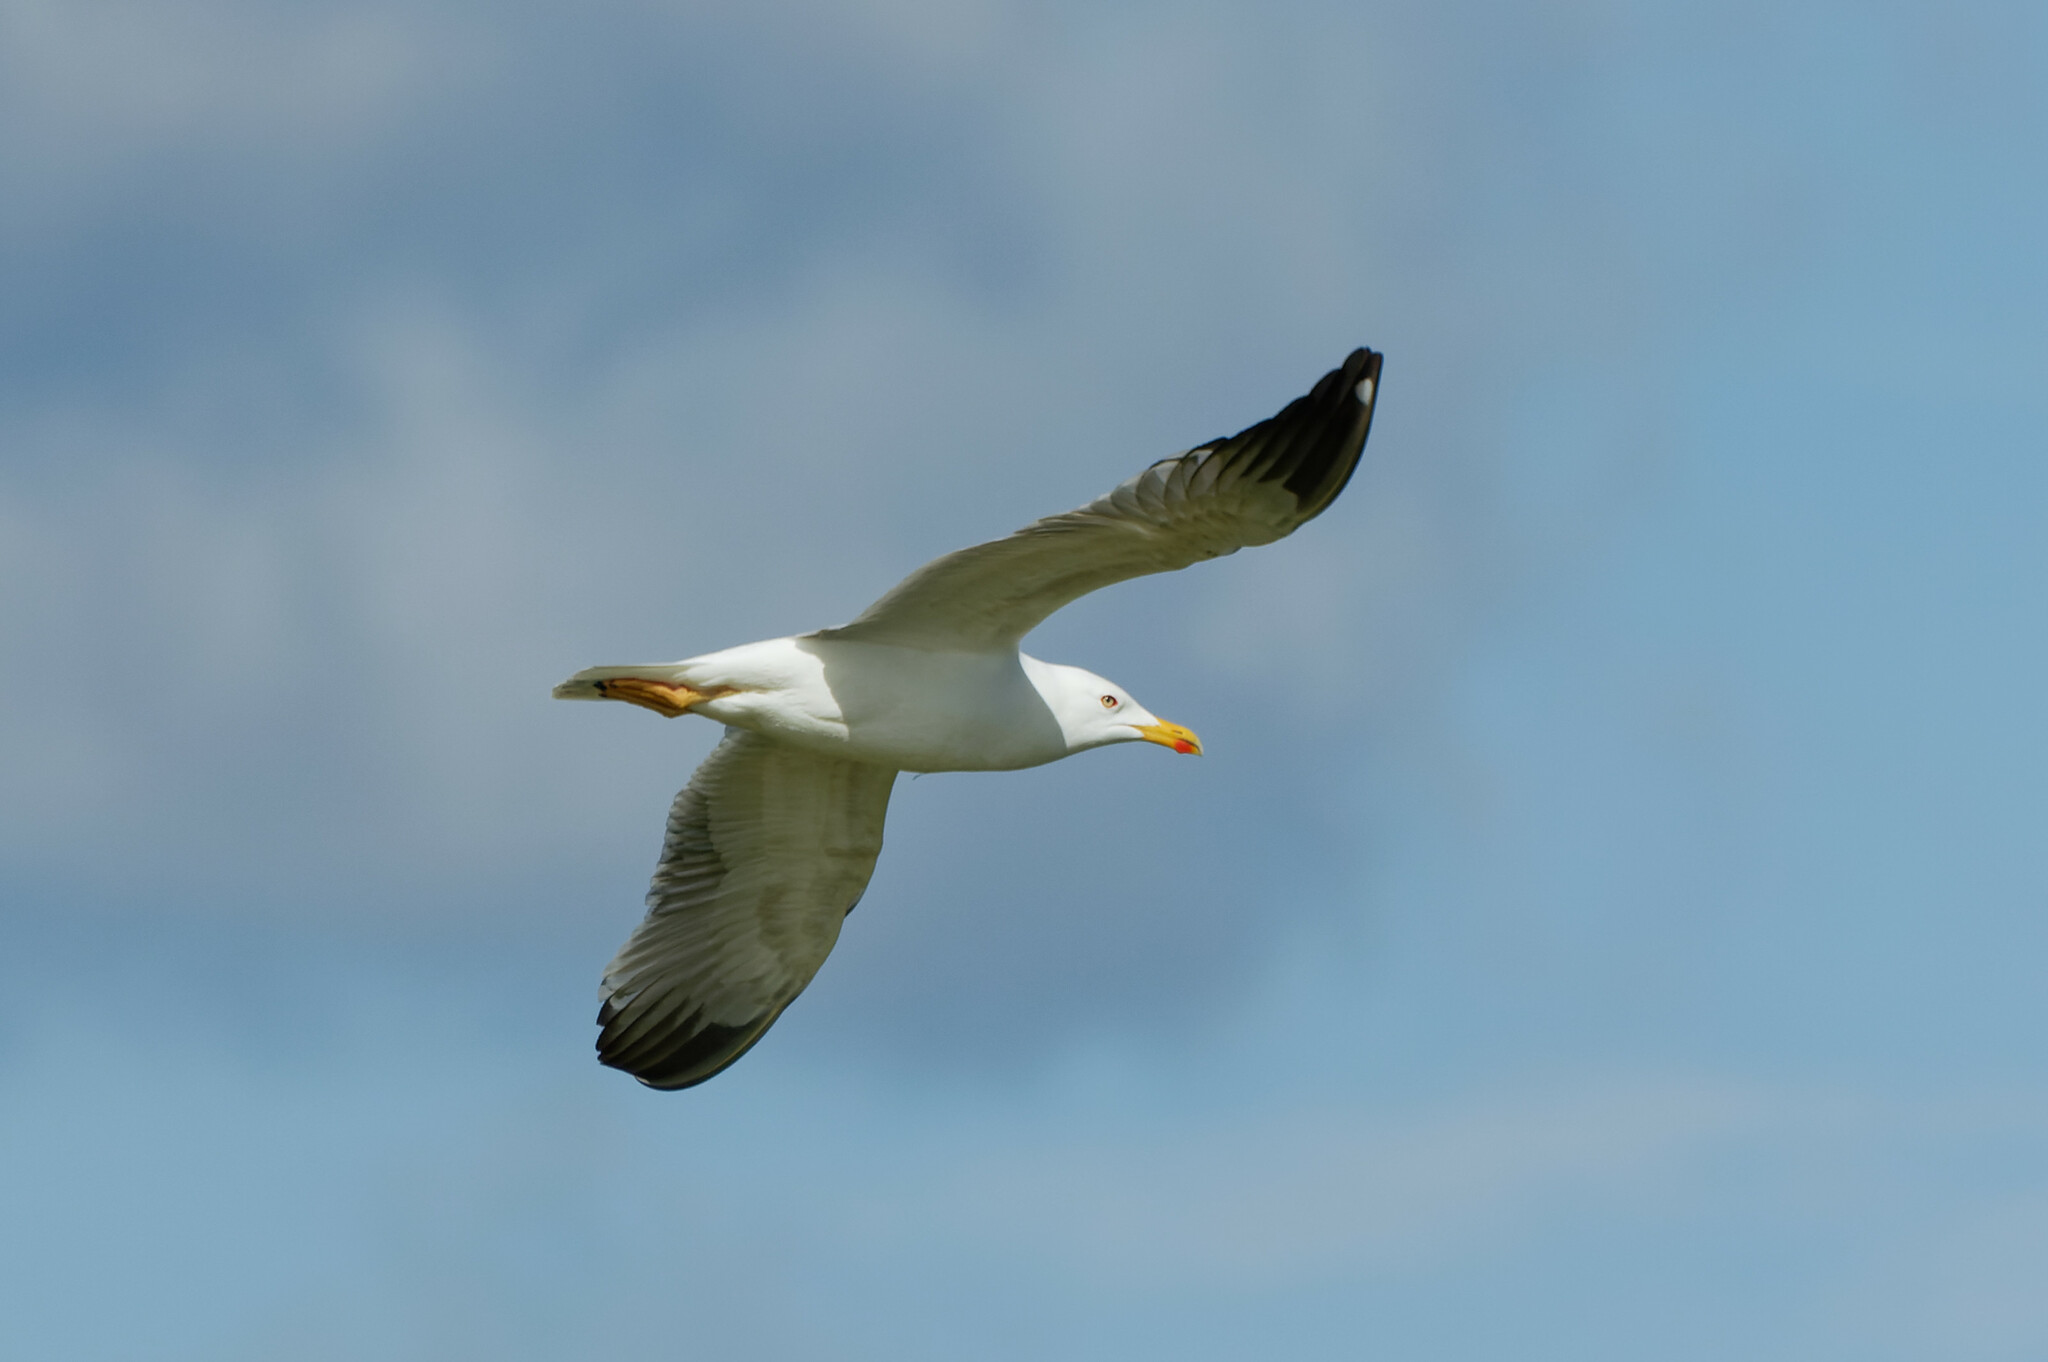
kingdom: Animalia
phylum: Chordata
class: Aves
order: Charadriiformes
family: Laridae
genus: Larus
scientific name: Larus michahellis
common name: Yellow-legged gull
